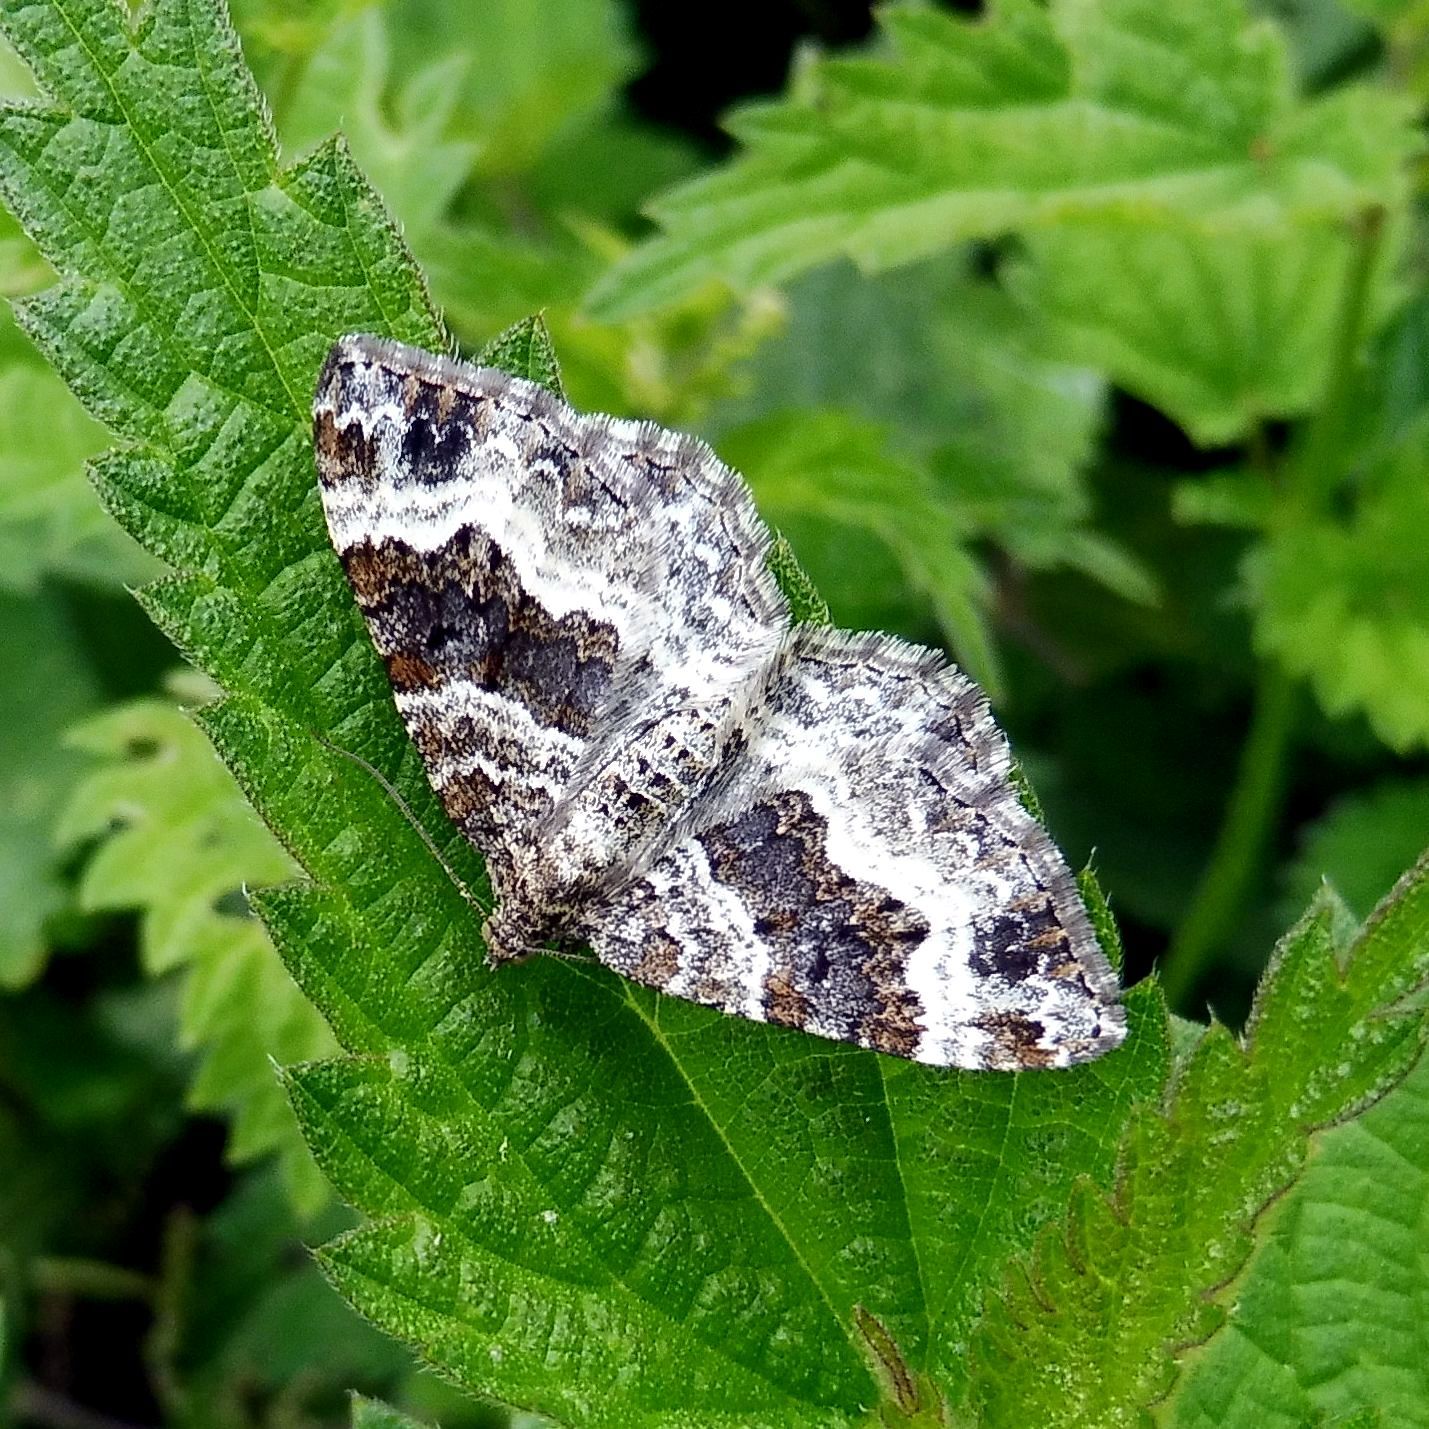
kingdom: Animalia
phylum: Arthropoda
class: Insecta
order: Lepidoptera
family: Geometridae
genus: Epirrhoe
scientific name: Epirrhoe alternata
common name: Common carpet
